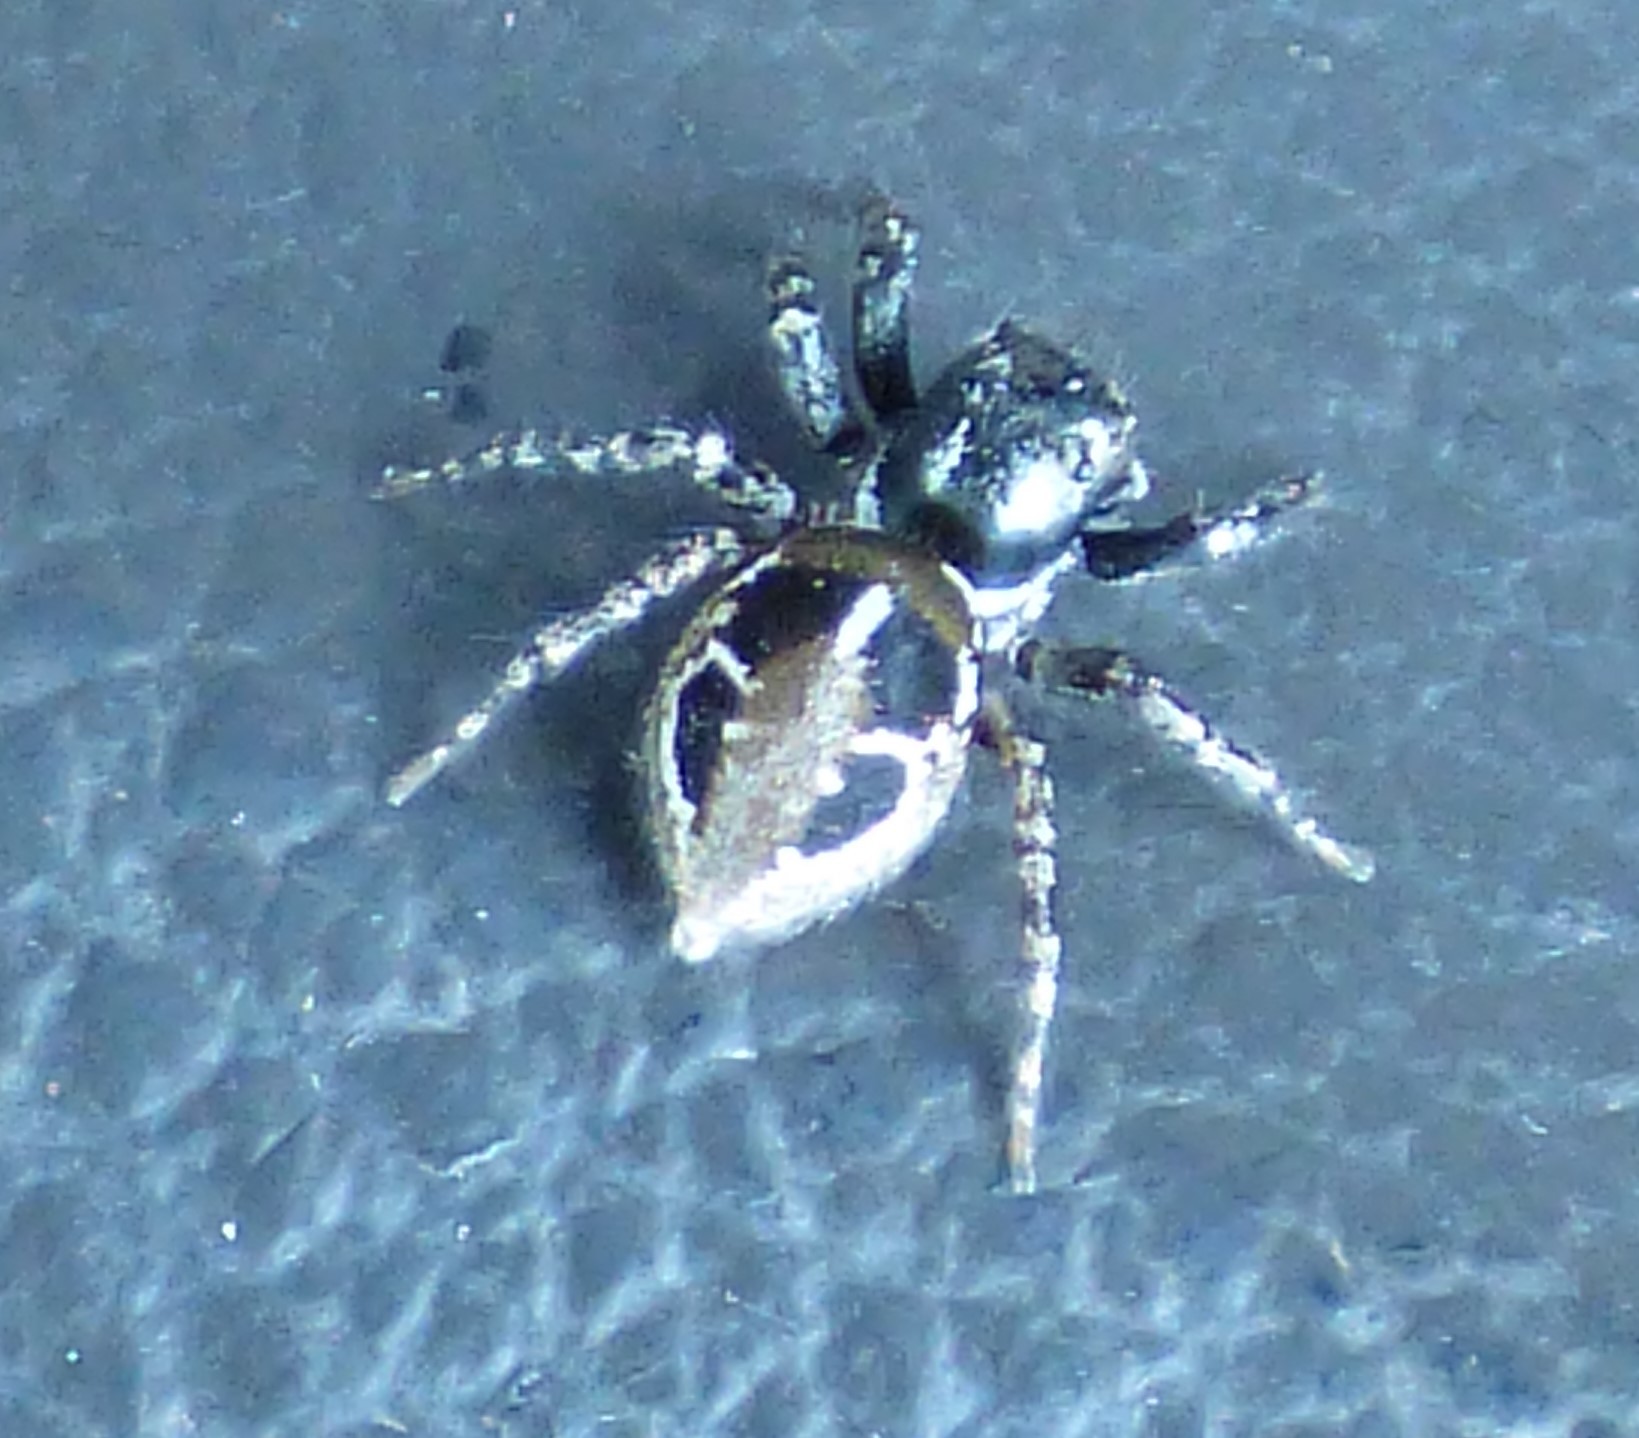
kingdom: Animalia
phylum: Arthropoda
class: Arachnida
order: Araneae
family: Salticidae
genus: Anasaitis
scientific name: Anasaitis canosa
